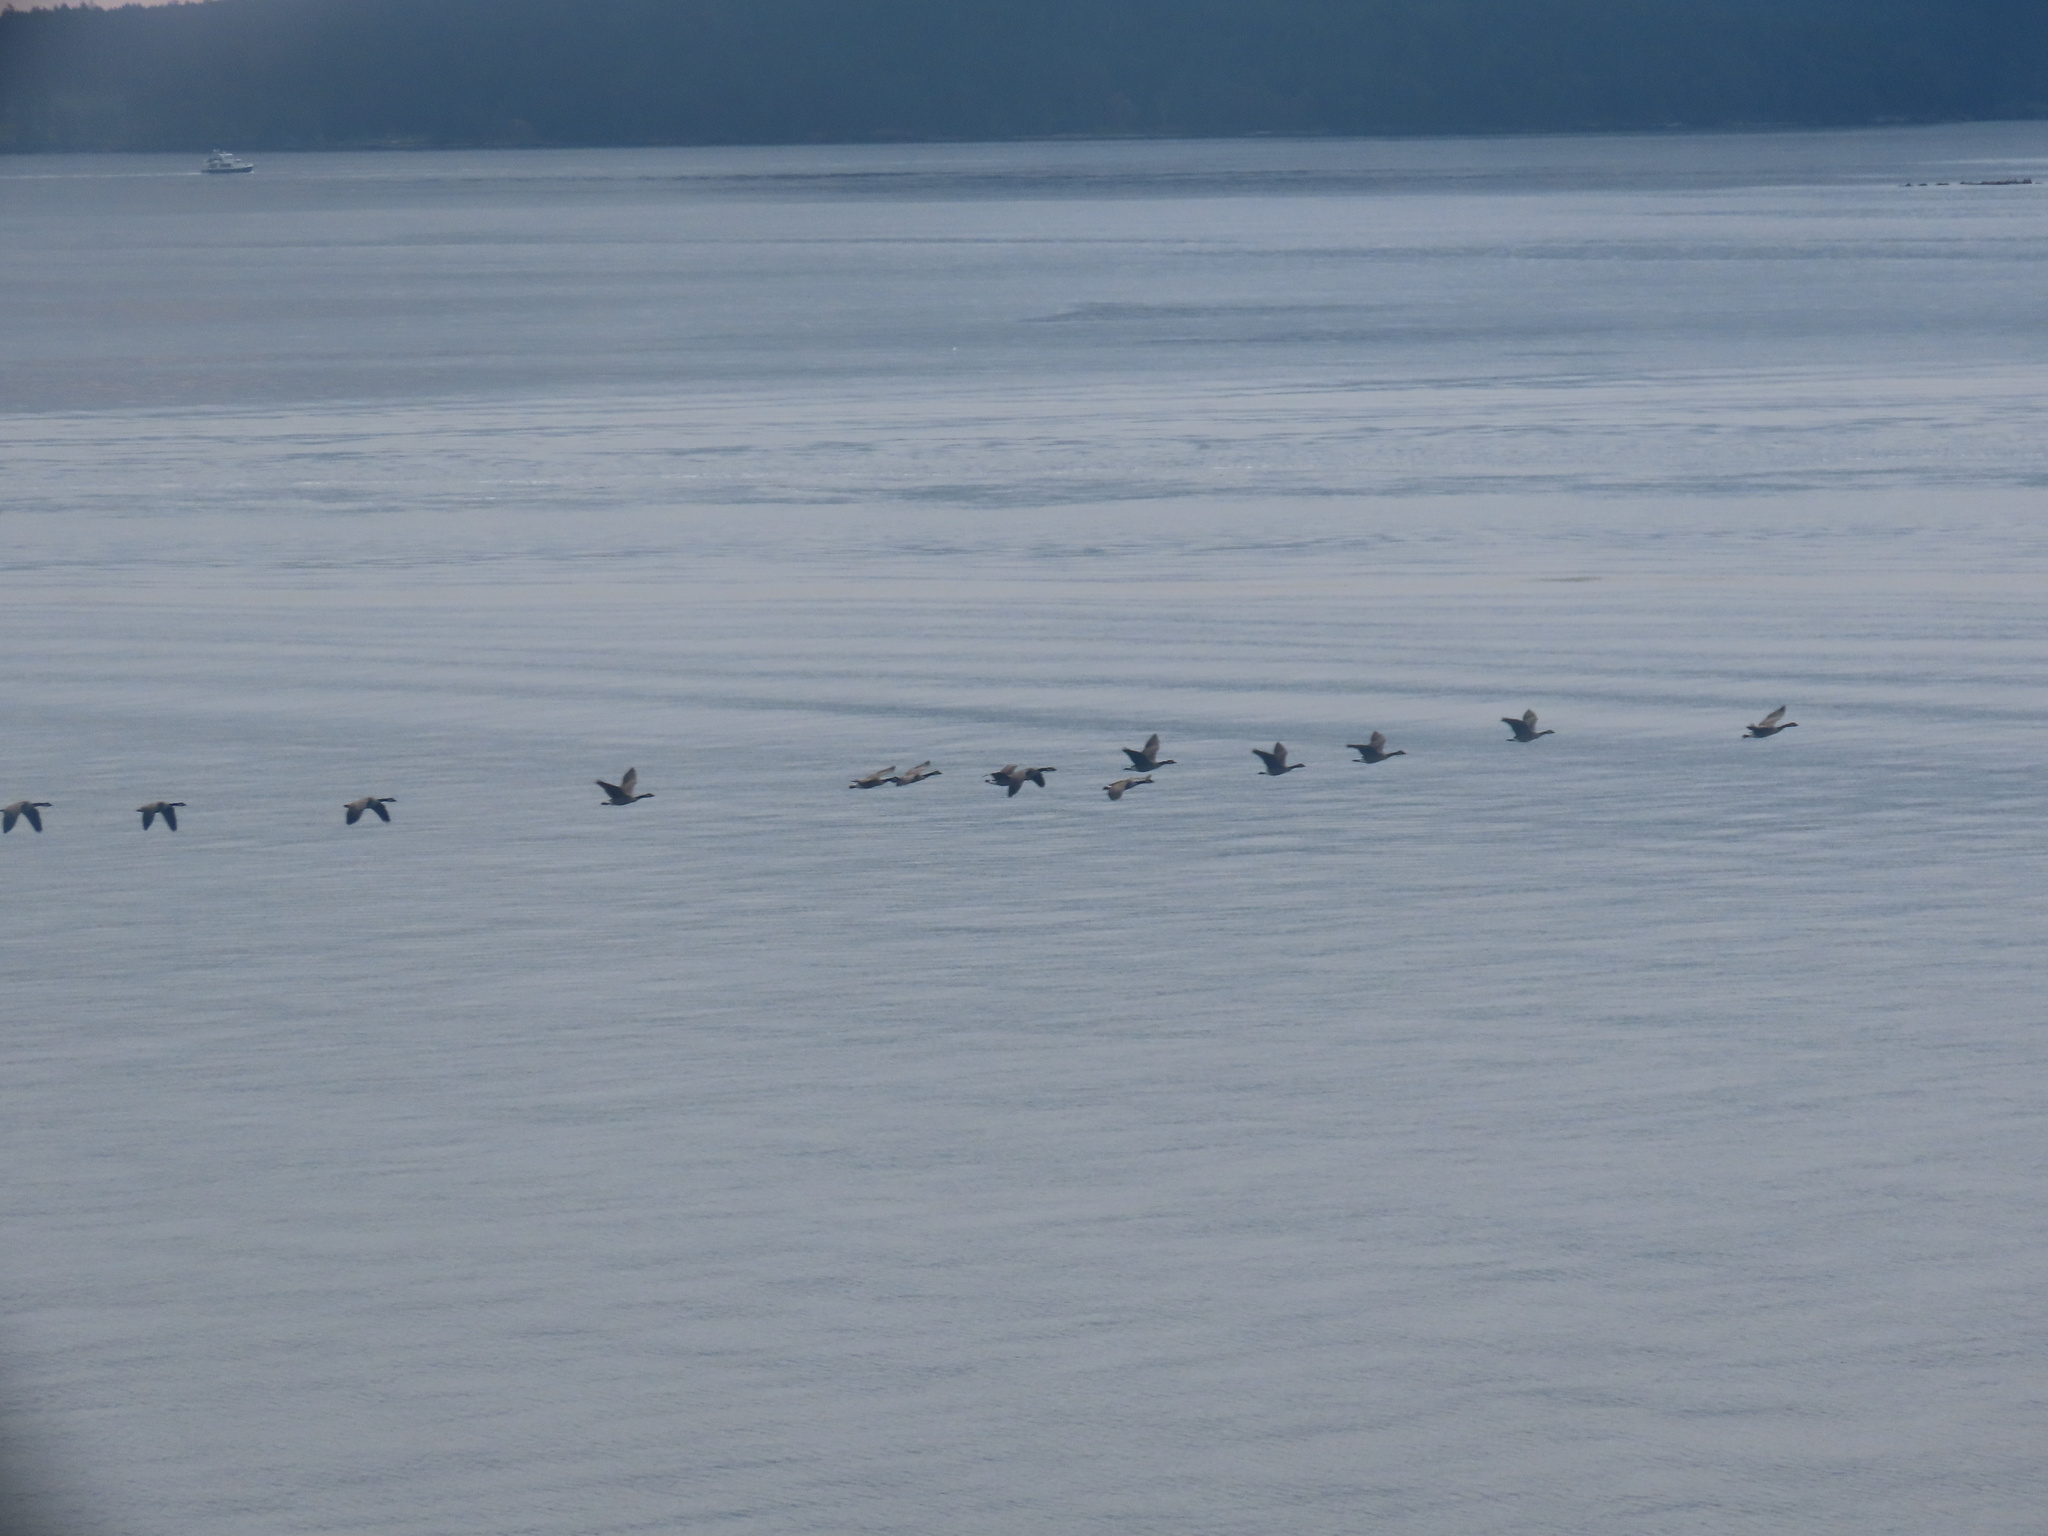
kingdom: Animalia
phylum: Chordata
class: Aves
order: Anseriformes
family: Anatidae
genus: Branta
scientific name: Branta canadensis
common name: Canada goose
